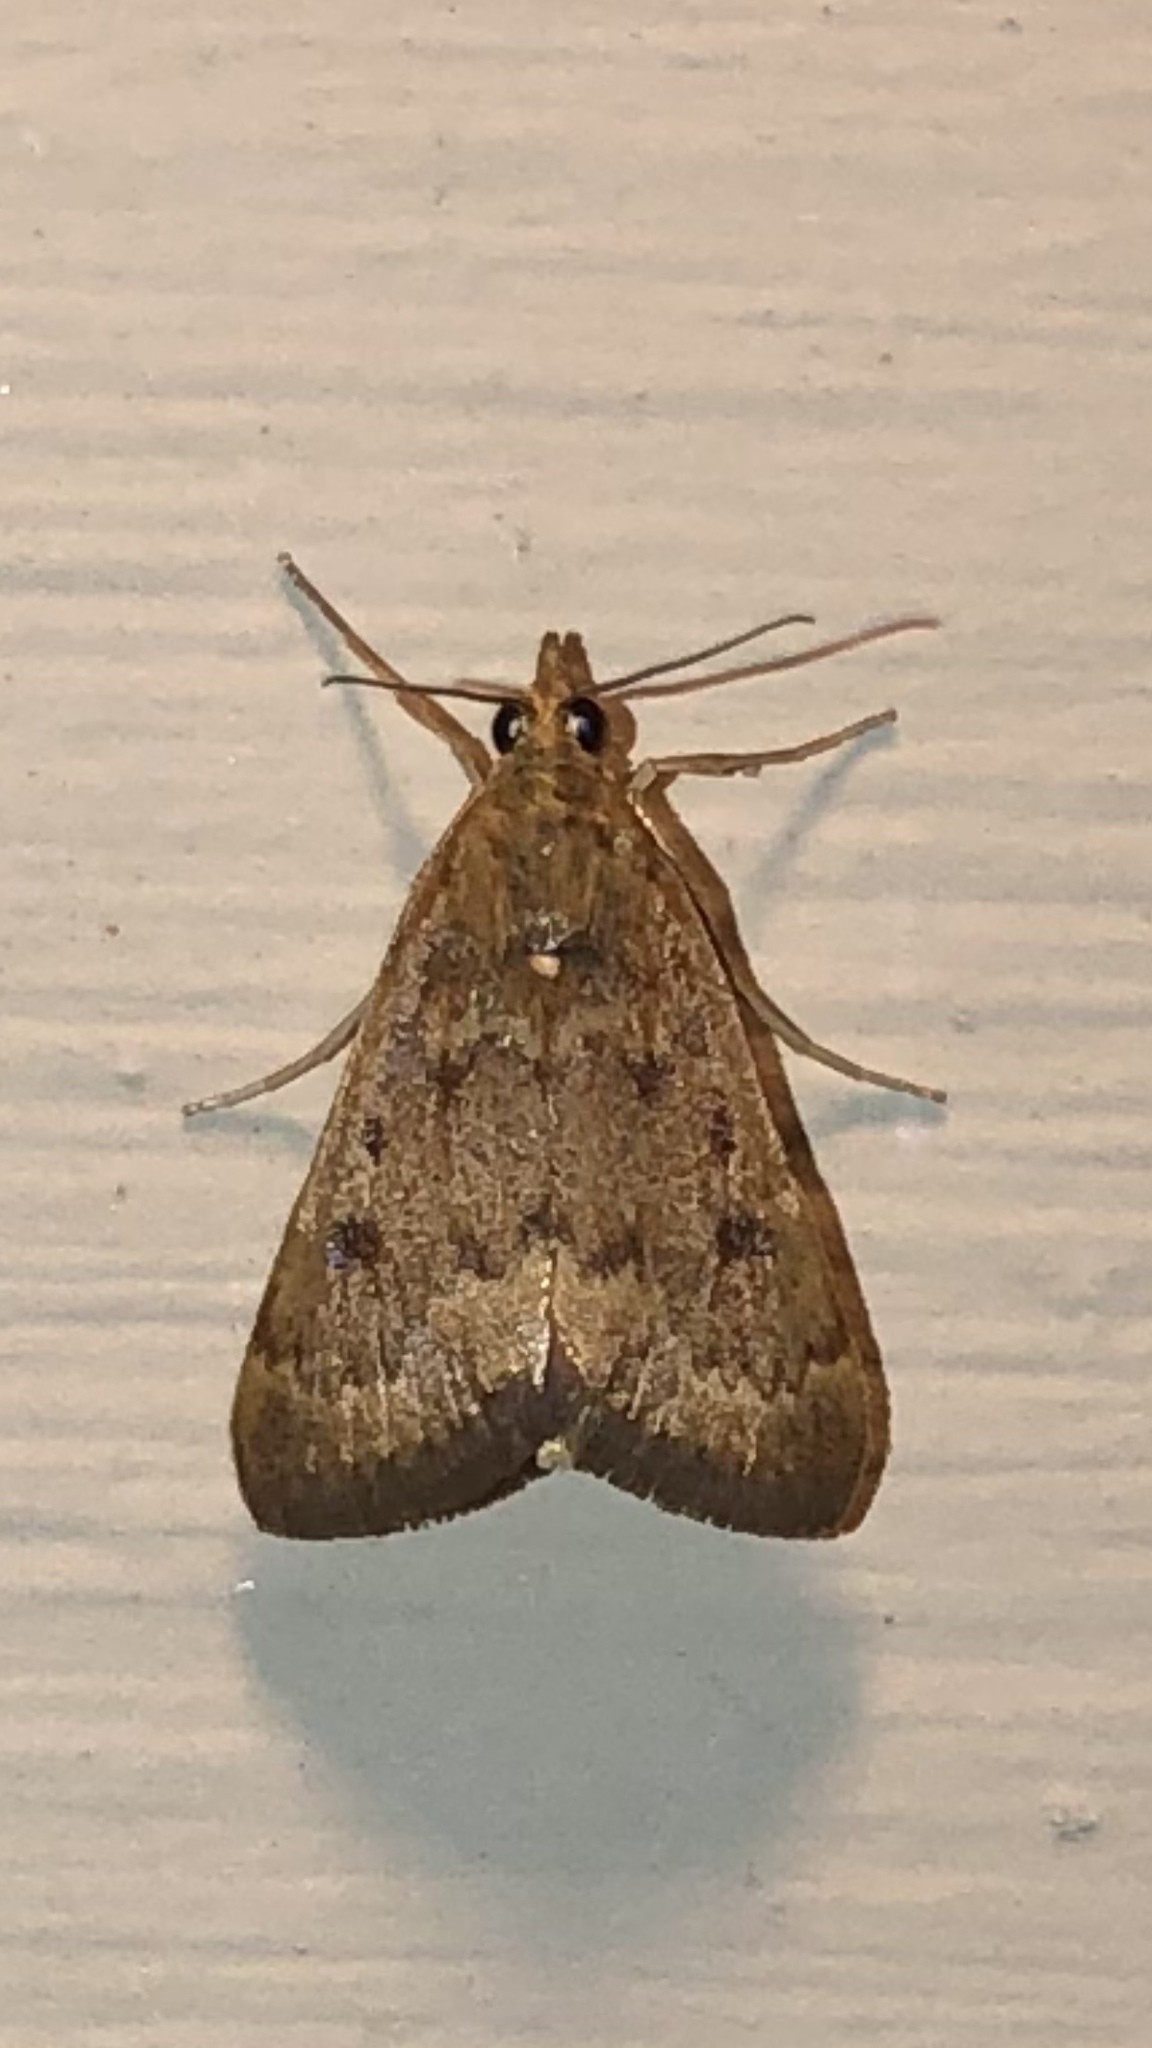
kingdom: Animalia
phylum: Arthropoda
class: Insecta
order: Lepidoptera
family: Crambidae
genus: Achyra
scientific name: Achyra rantalis
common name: Garden webworm
